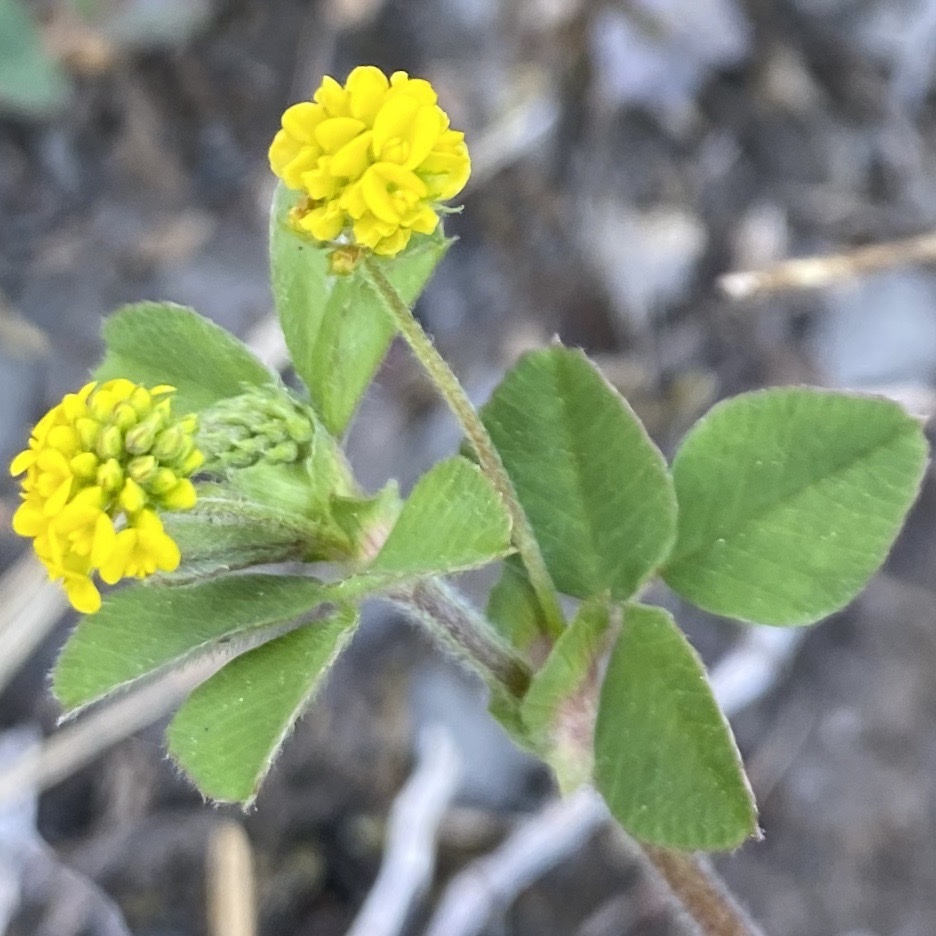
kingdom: Plantae
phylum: Tracheophyta
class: Magnoliopsida
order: Fabales
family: Fabaceae
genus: Medicago
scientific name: Medicago lupulina
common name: Black medick
